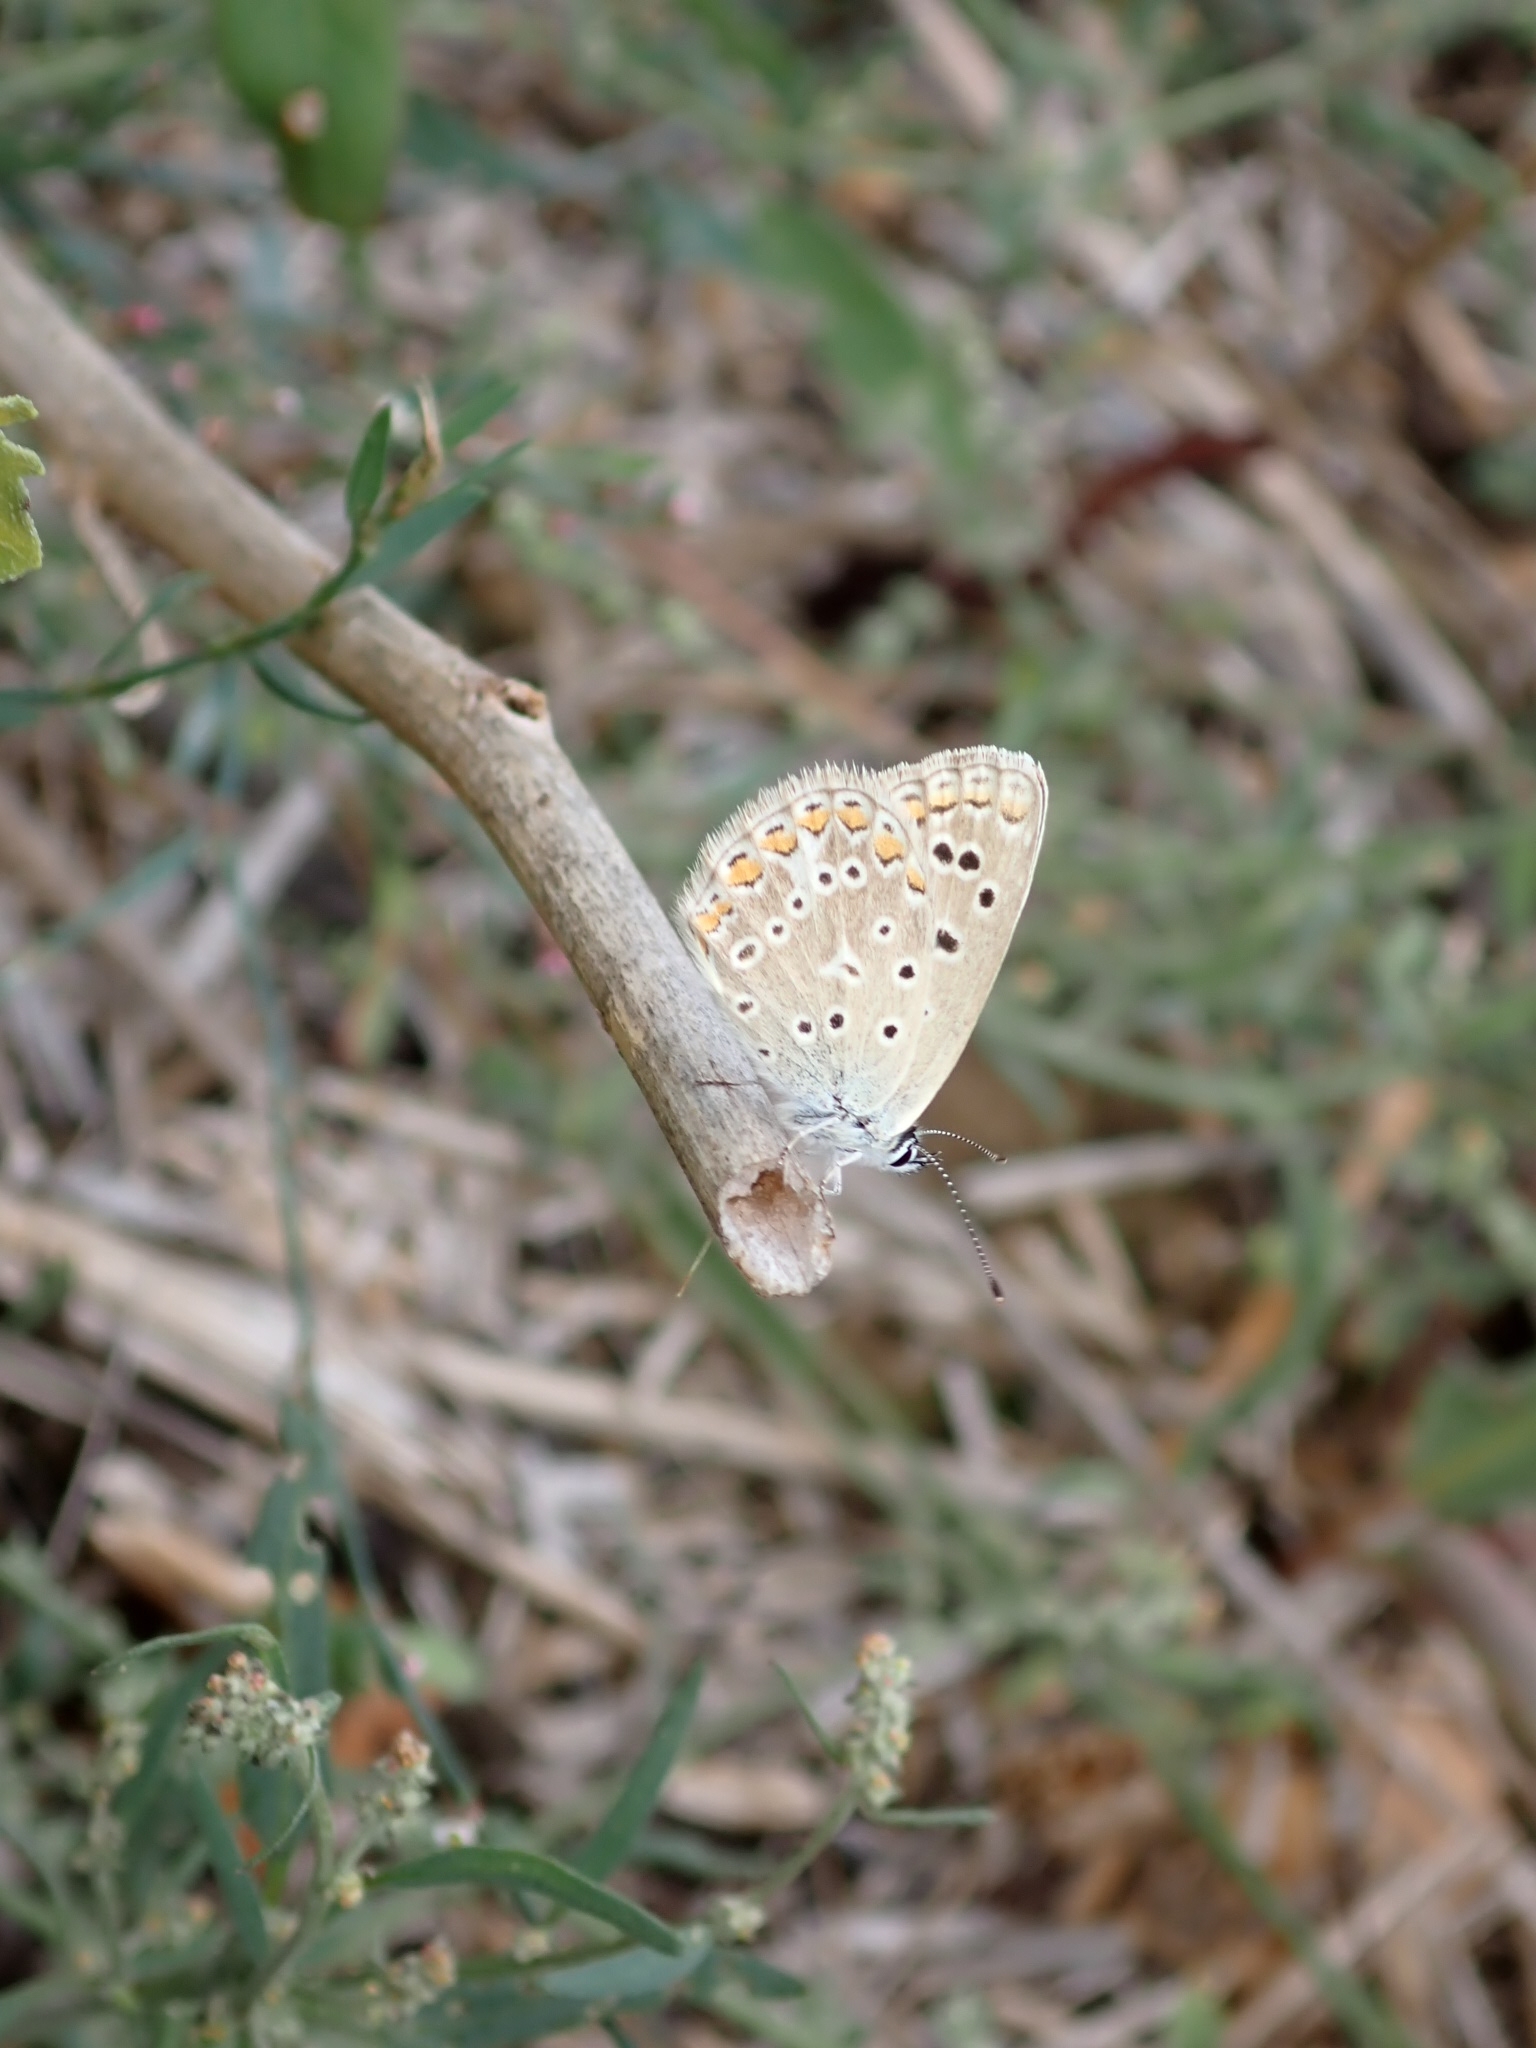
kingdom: Animalia
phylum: Arthropoda
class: Insecta
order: Lepidoptera
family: Lycaenidae
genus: Polyommatus
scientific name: Polyommatus icarus
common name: Common blue
